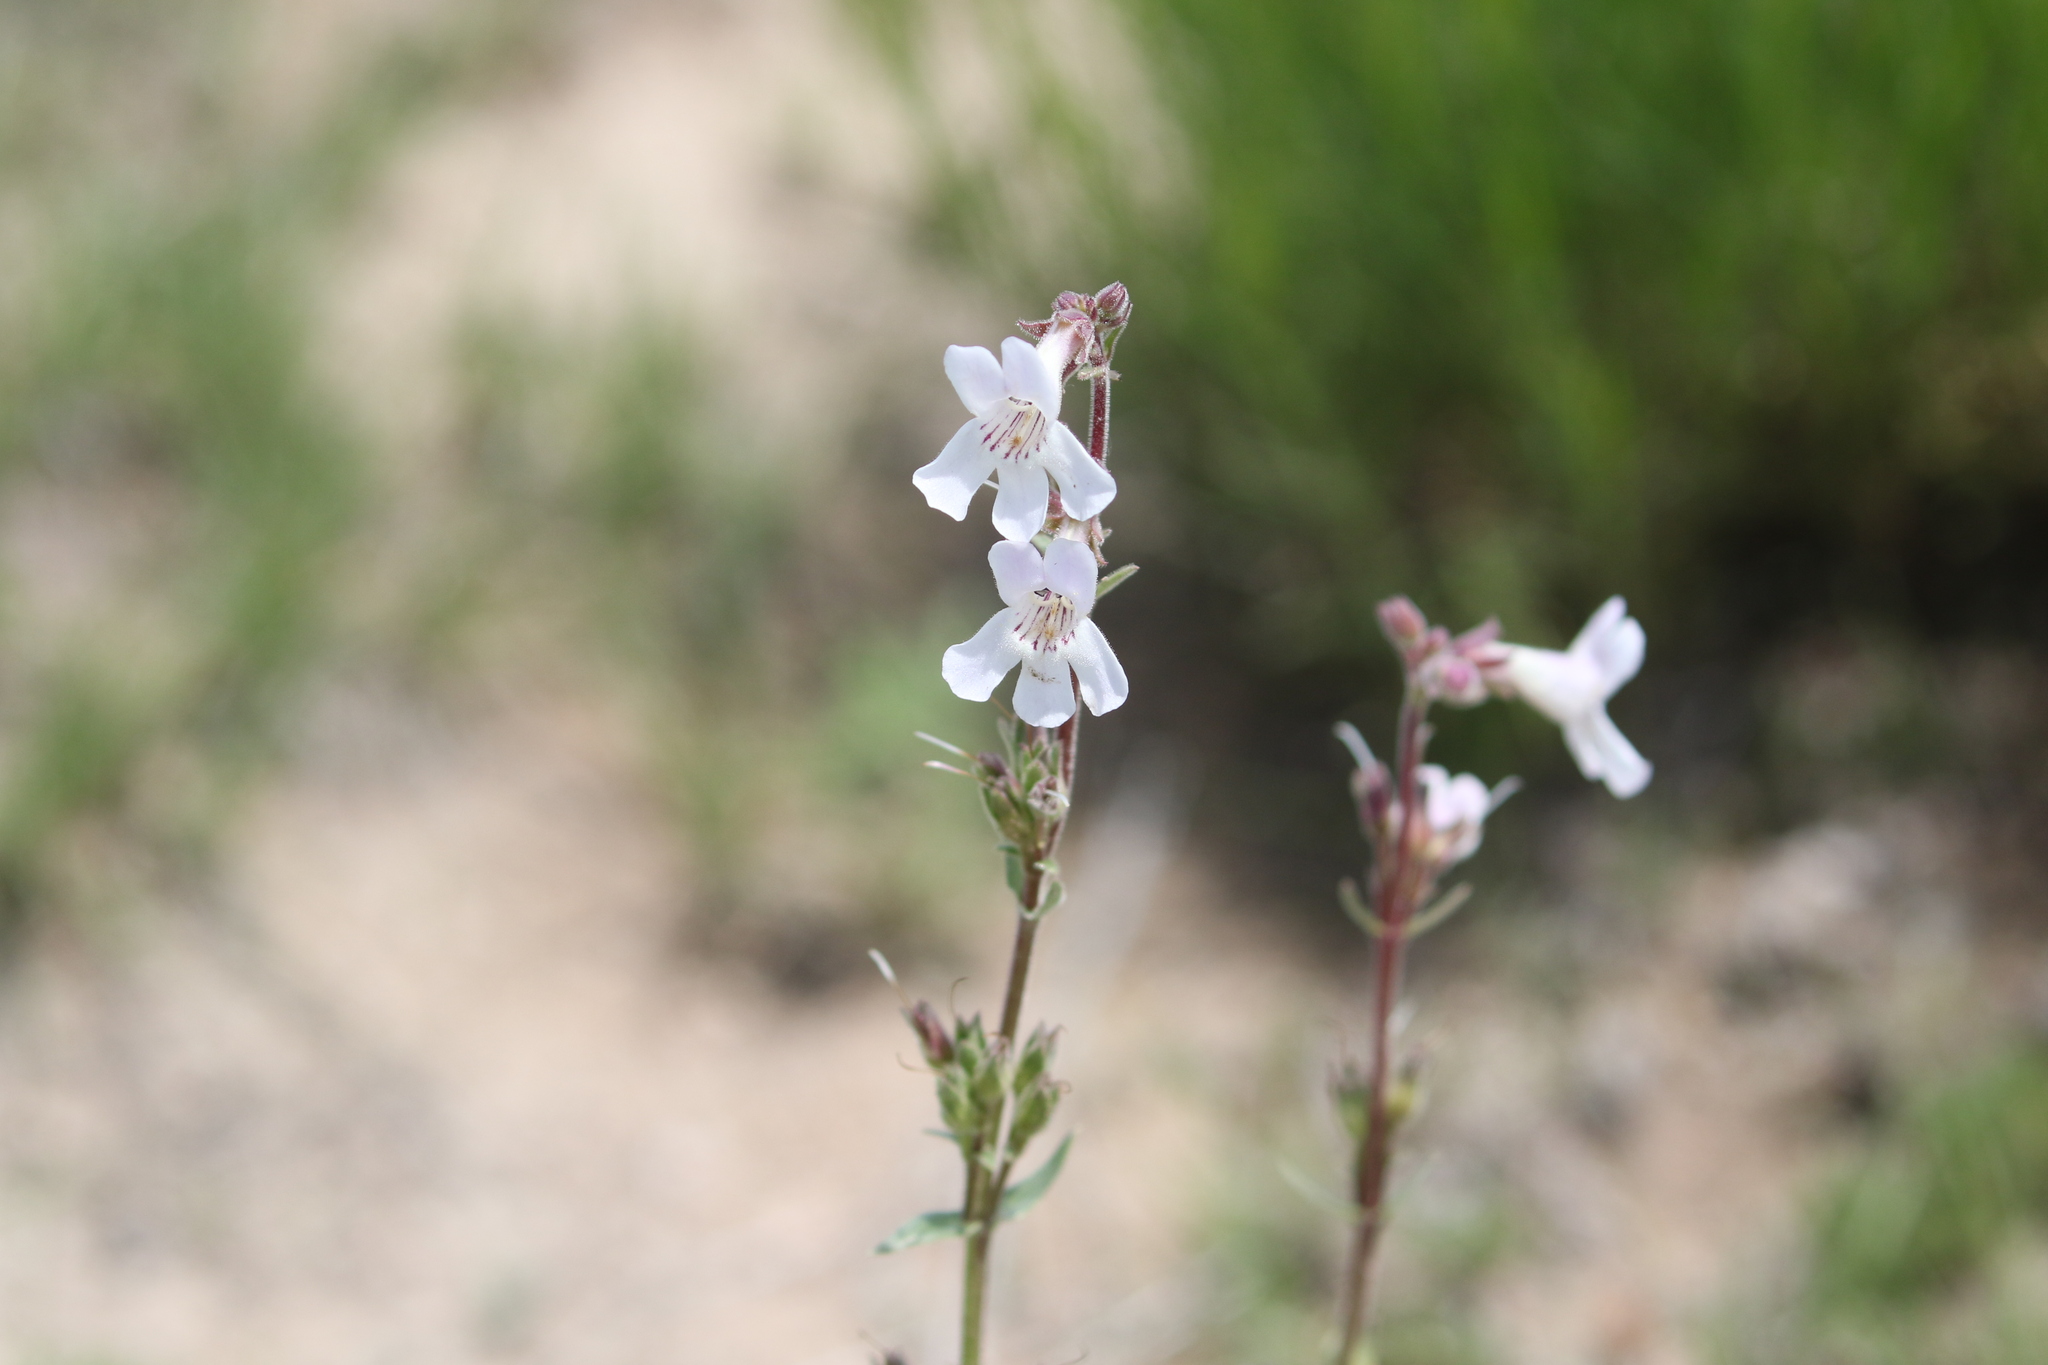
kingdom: Plantae
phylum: Tracheophyta
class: Magnoliopsida
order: Lamiales
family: Plantaginaceae
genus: Penstemon
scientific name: Penstemon albidus
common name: White beardtongue
